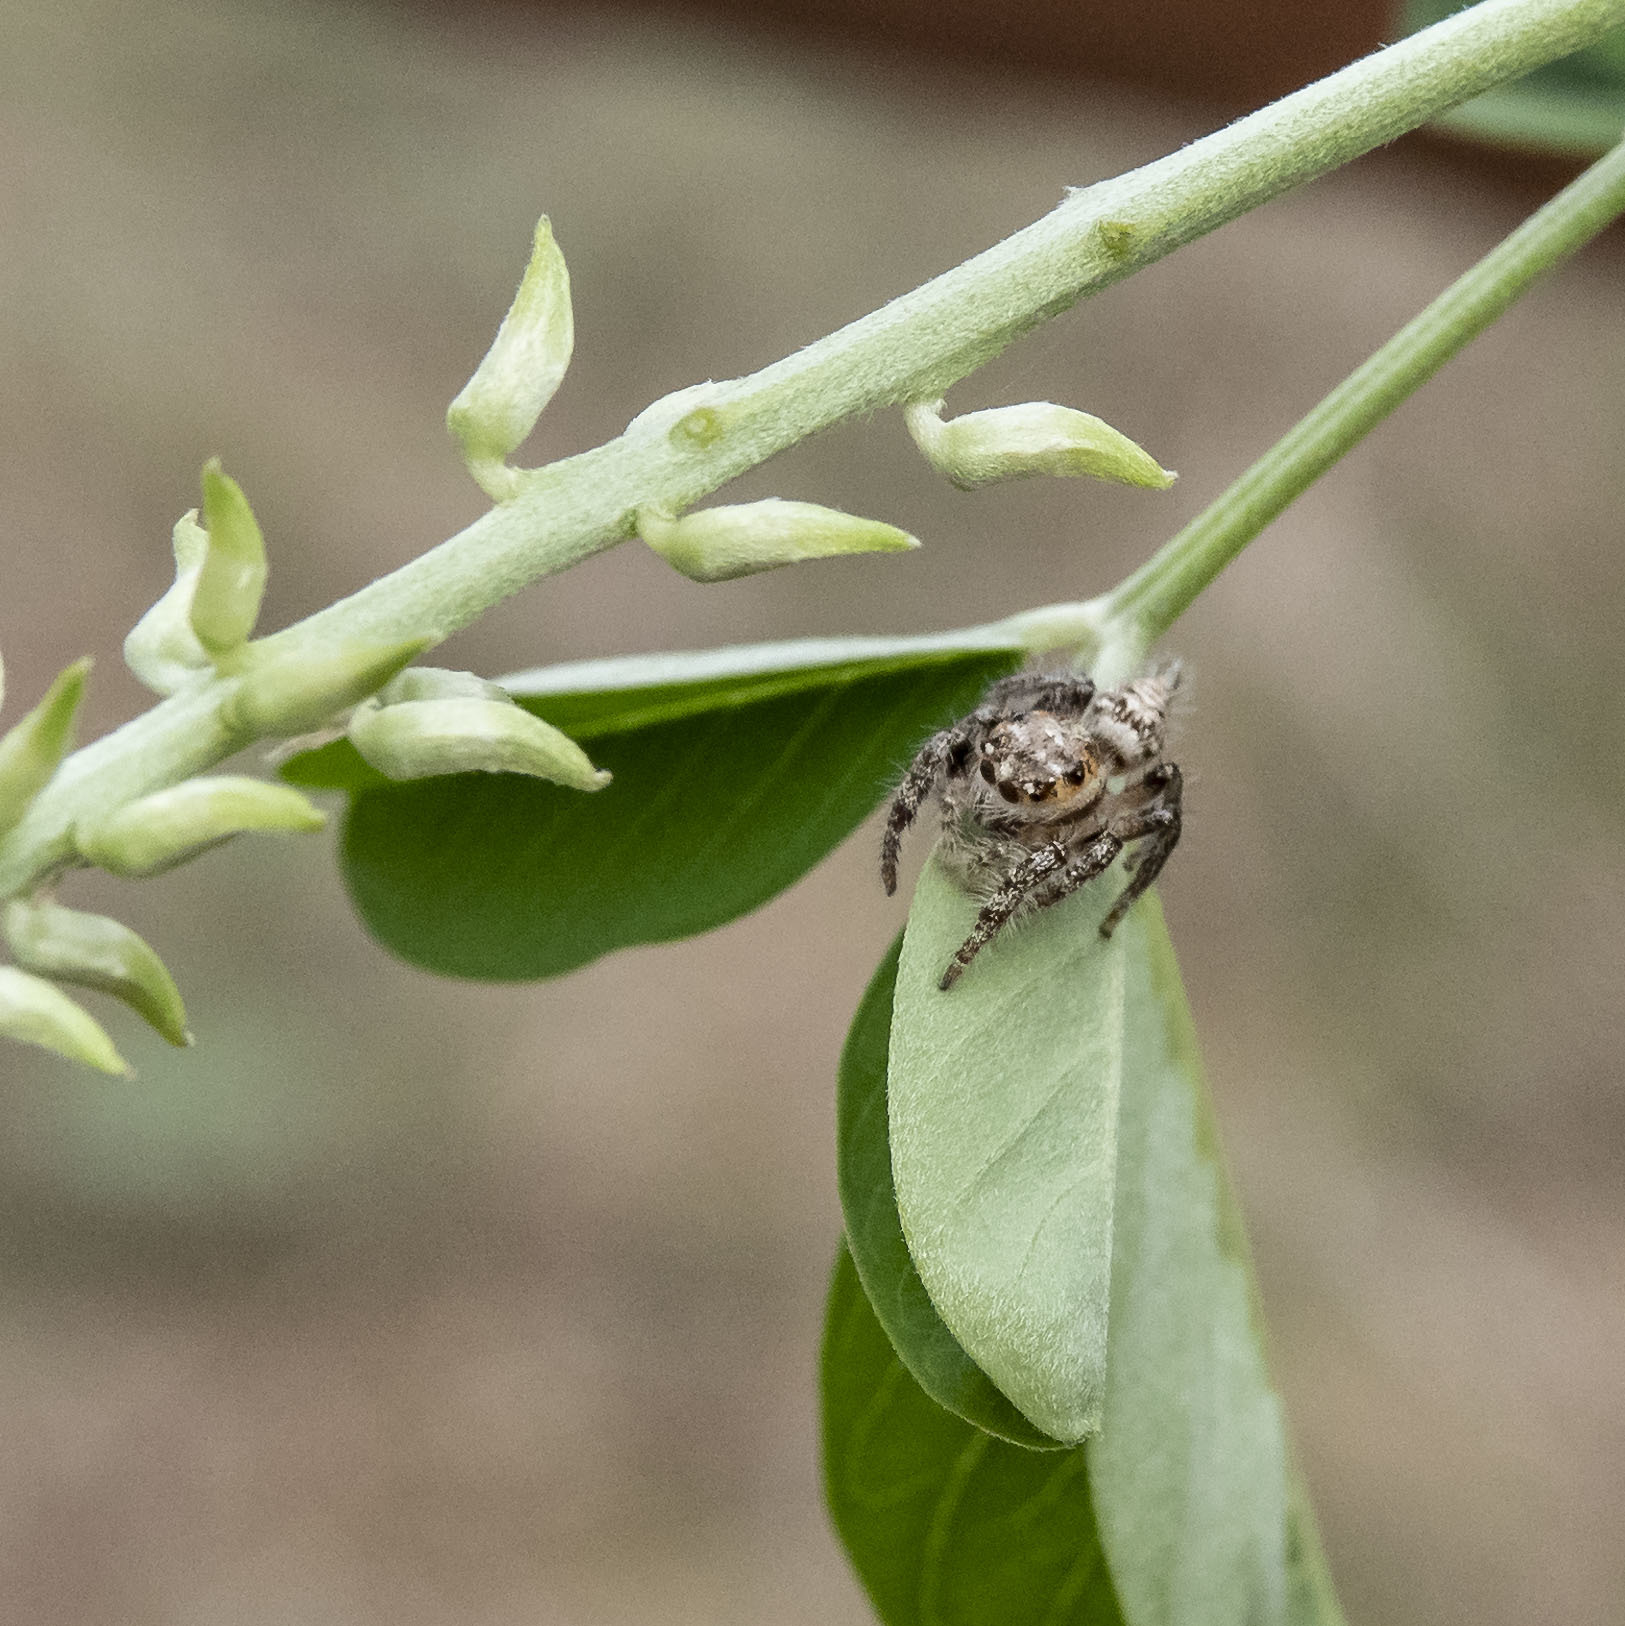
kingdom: Animalia
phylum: Arthropoda
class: Arachnida
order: Araneae
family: Salticidae
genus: Hyllus
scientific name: Hyllus semicupreus
